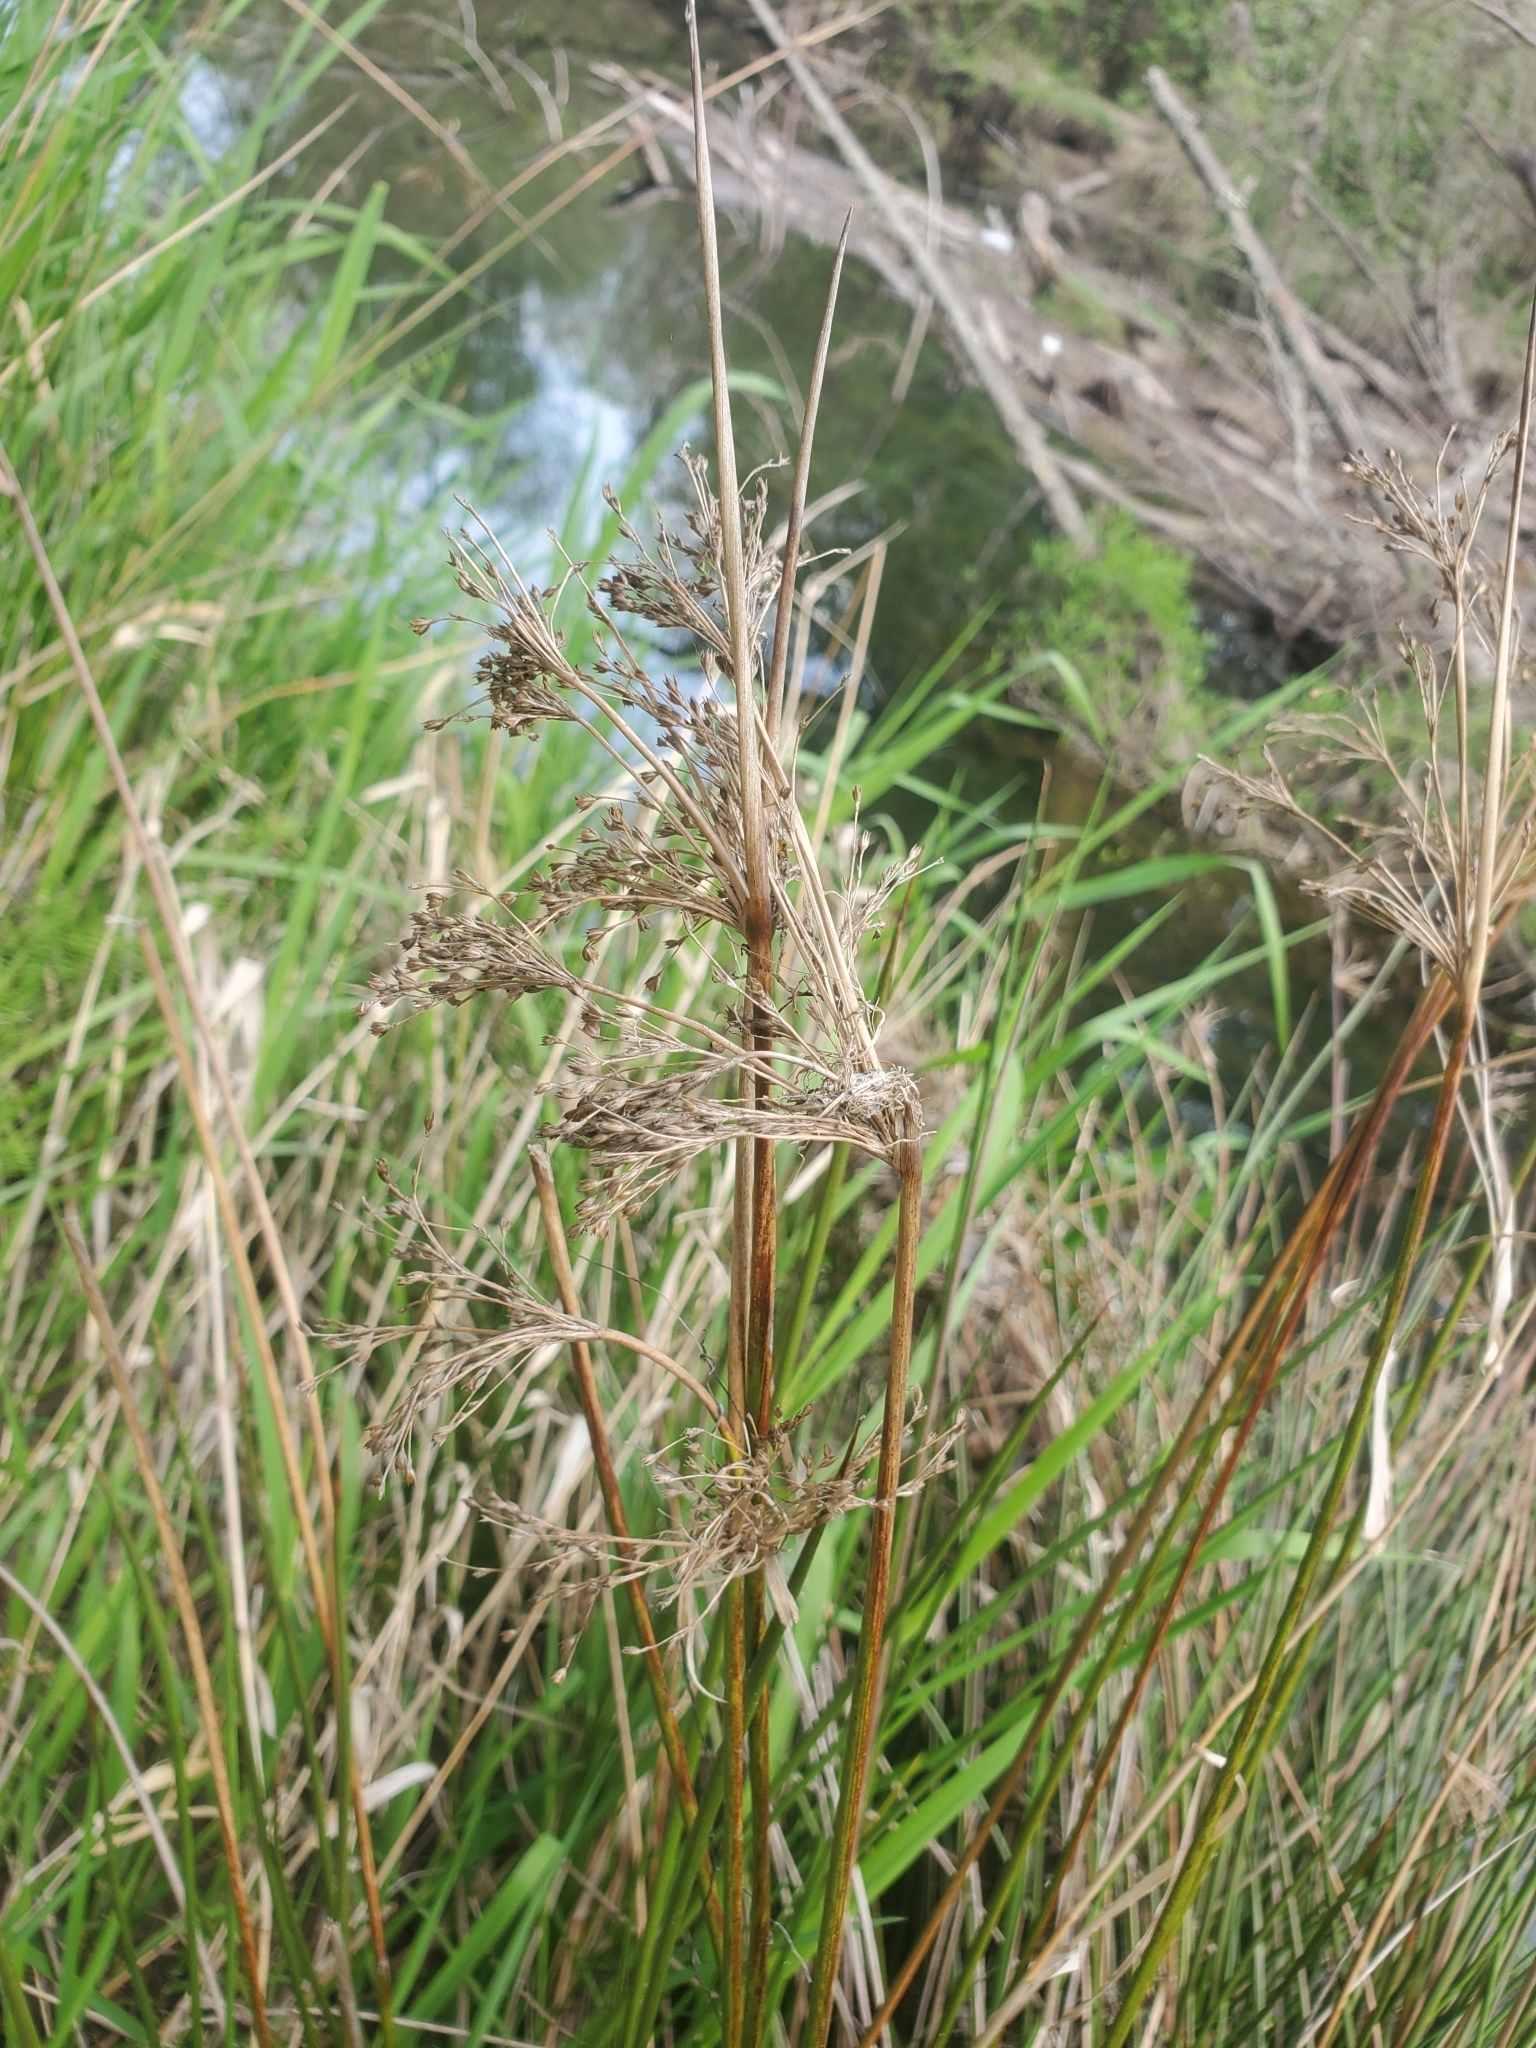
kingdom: Plantae
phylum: Tracheophyta
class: Liliopsida
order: Poales
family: Juncaceae
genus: Juncus
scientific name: Juncus effusus
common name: Soft rush
